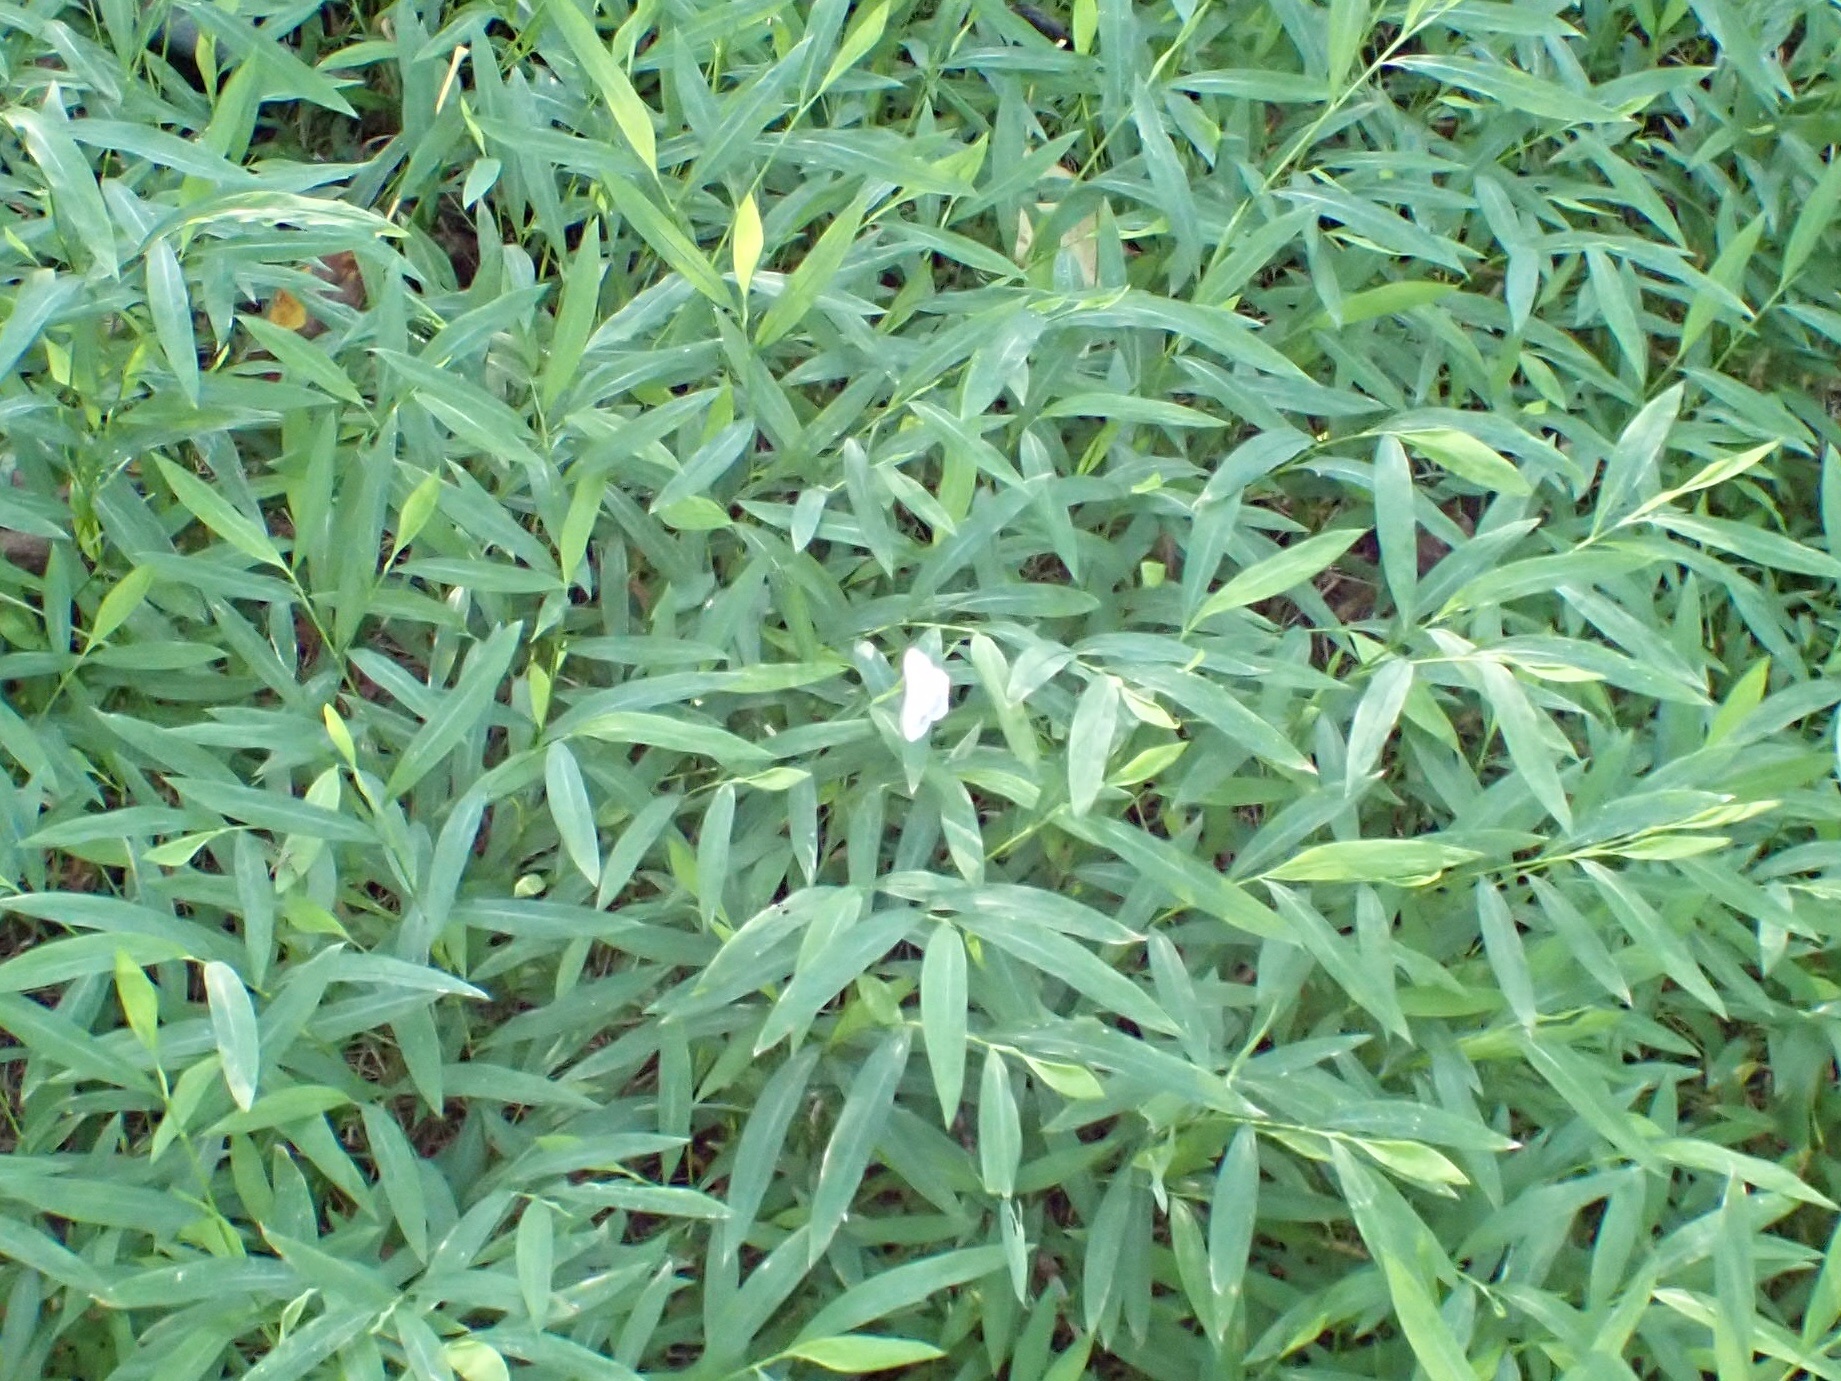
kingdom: Animalia
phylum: Arthropoda
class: Insecta
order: Lepidoptera
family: Geometridae
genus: Scopula
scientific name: Scopula limboundata
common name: Large lace border
